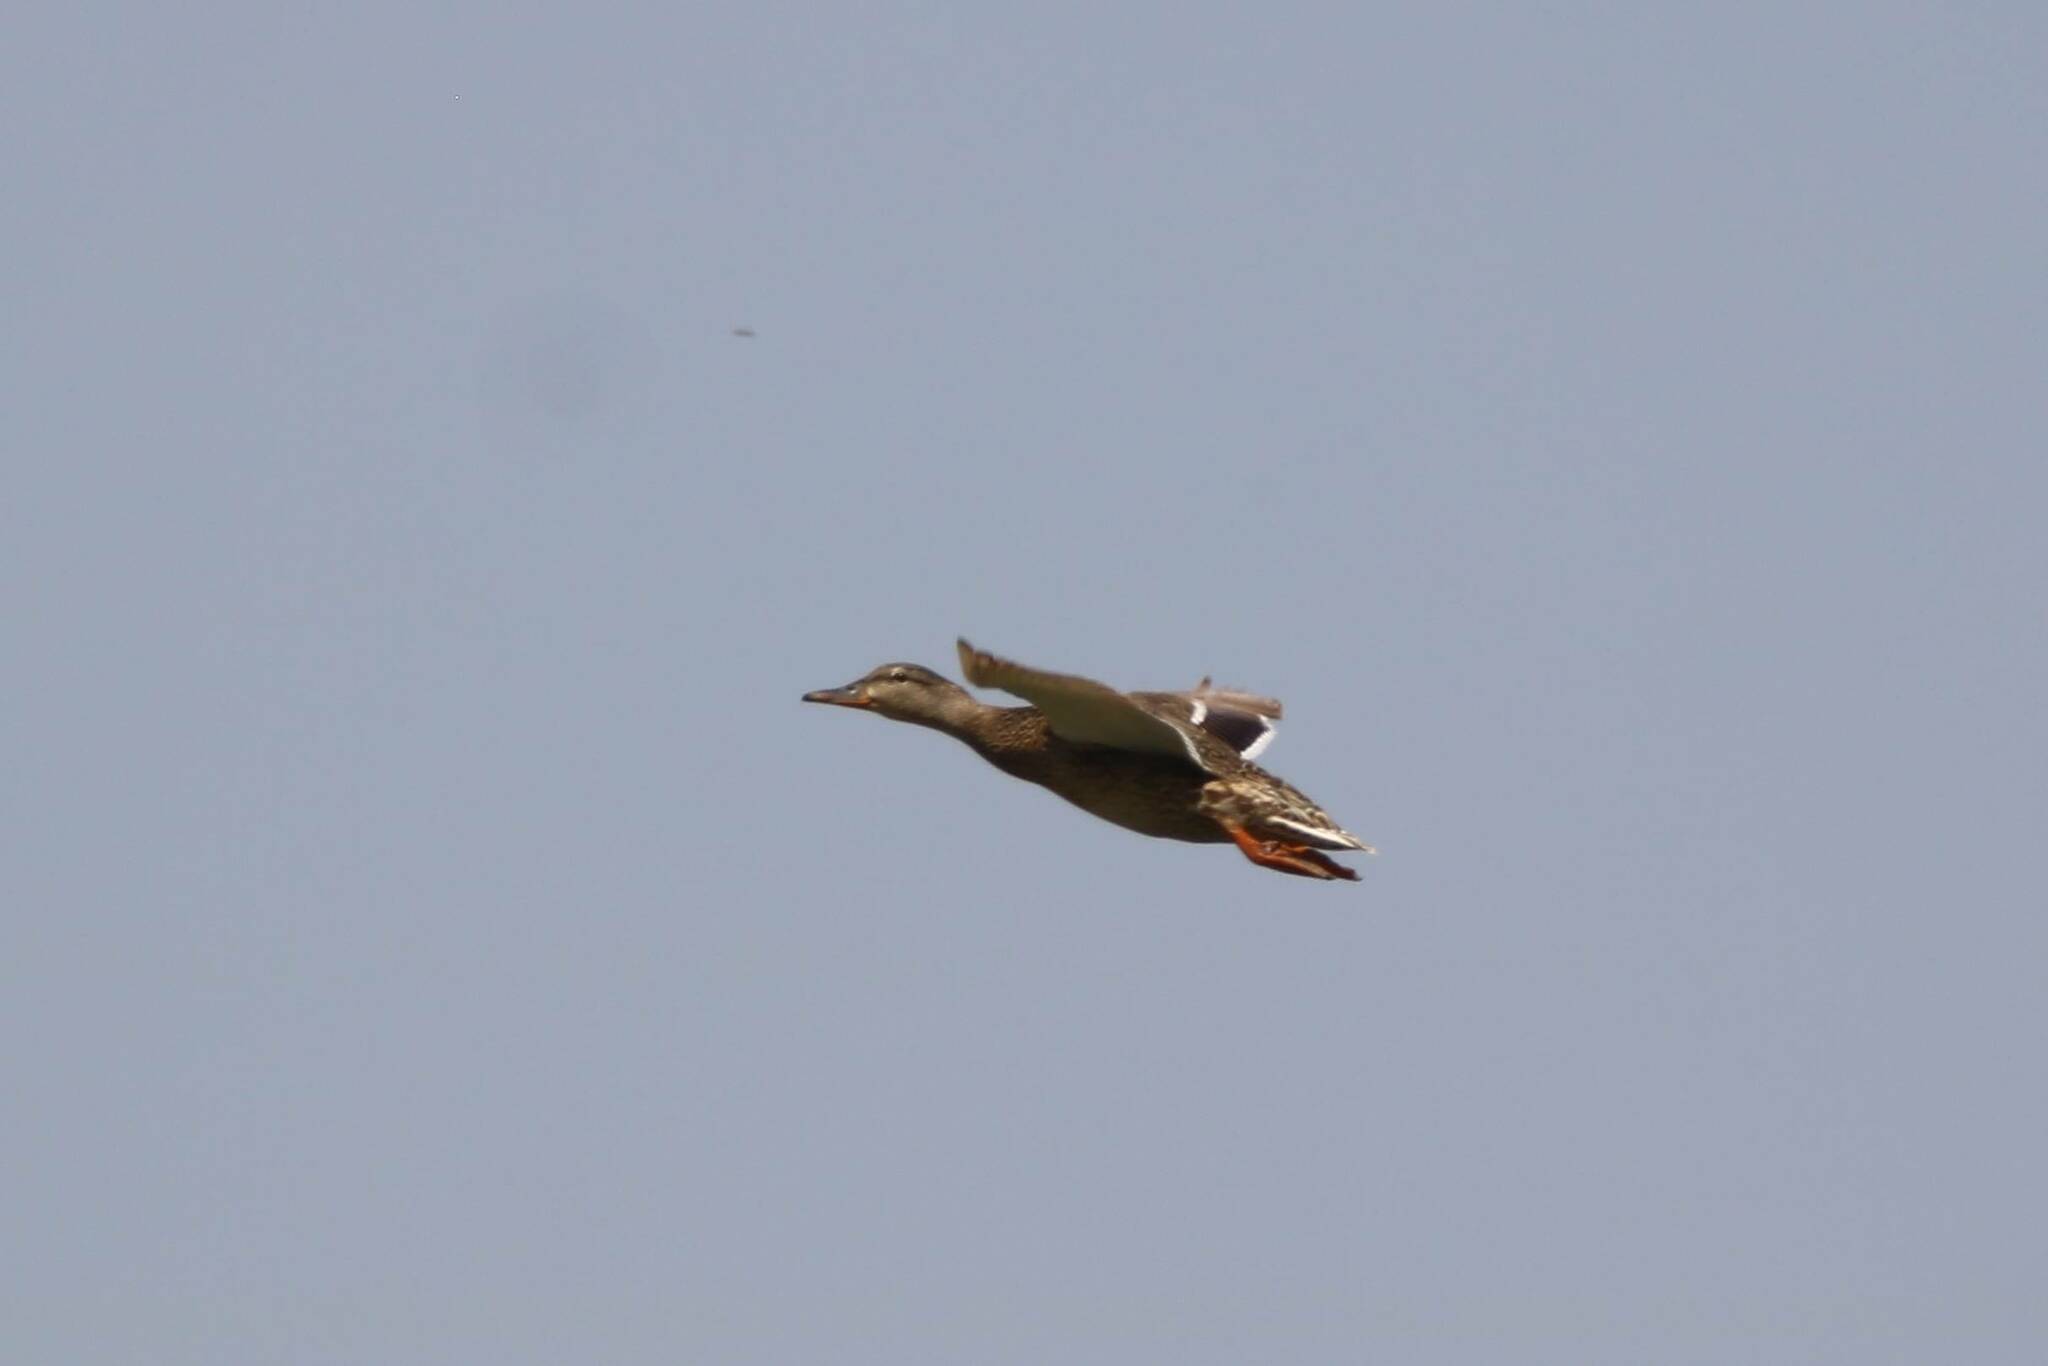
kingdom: Animalia
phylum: Chordata
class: Aves
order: Anseriformes
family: Anatidae
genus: Anas
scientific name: Anas platyrhynchos
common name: Mallard
